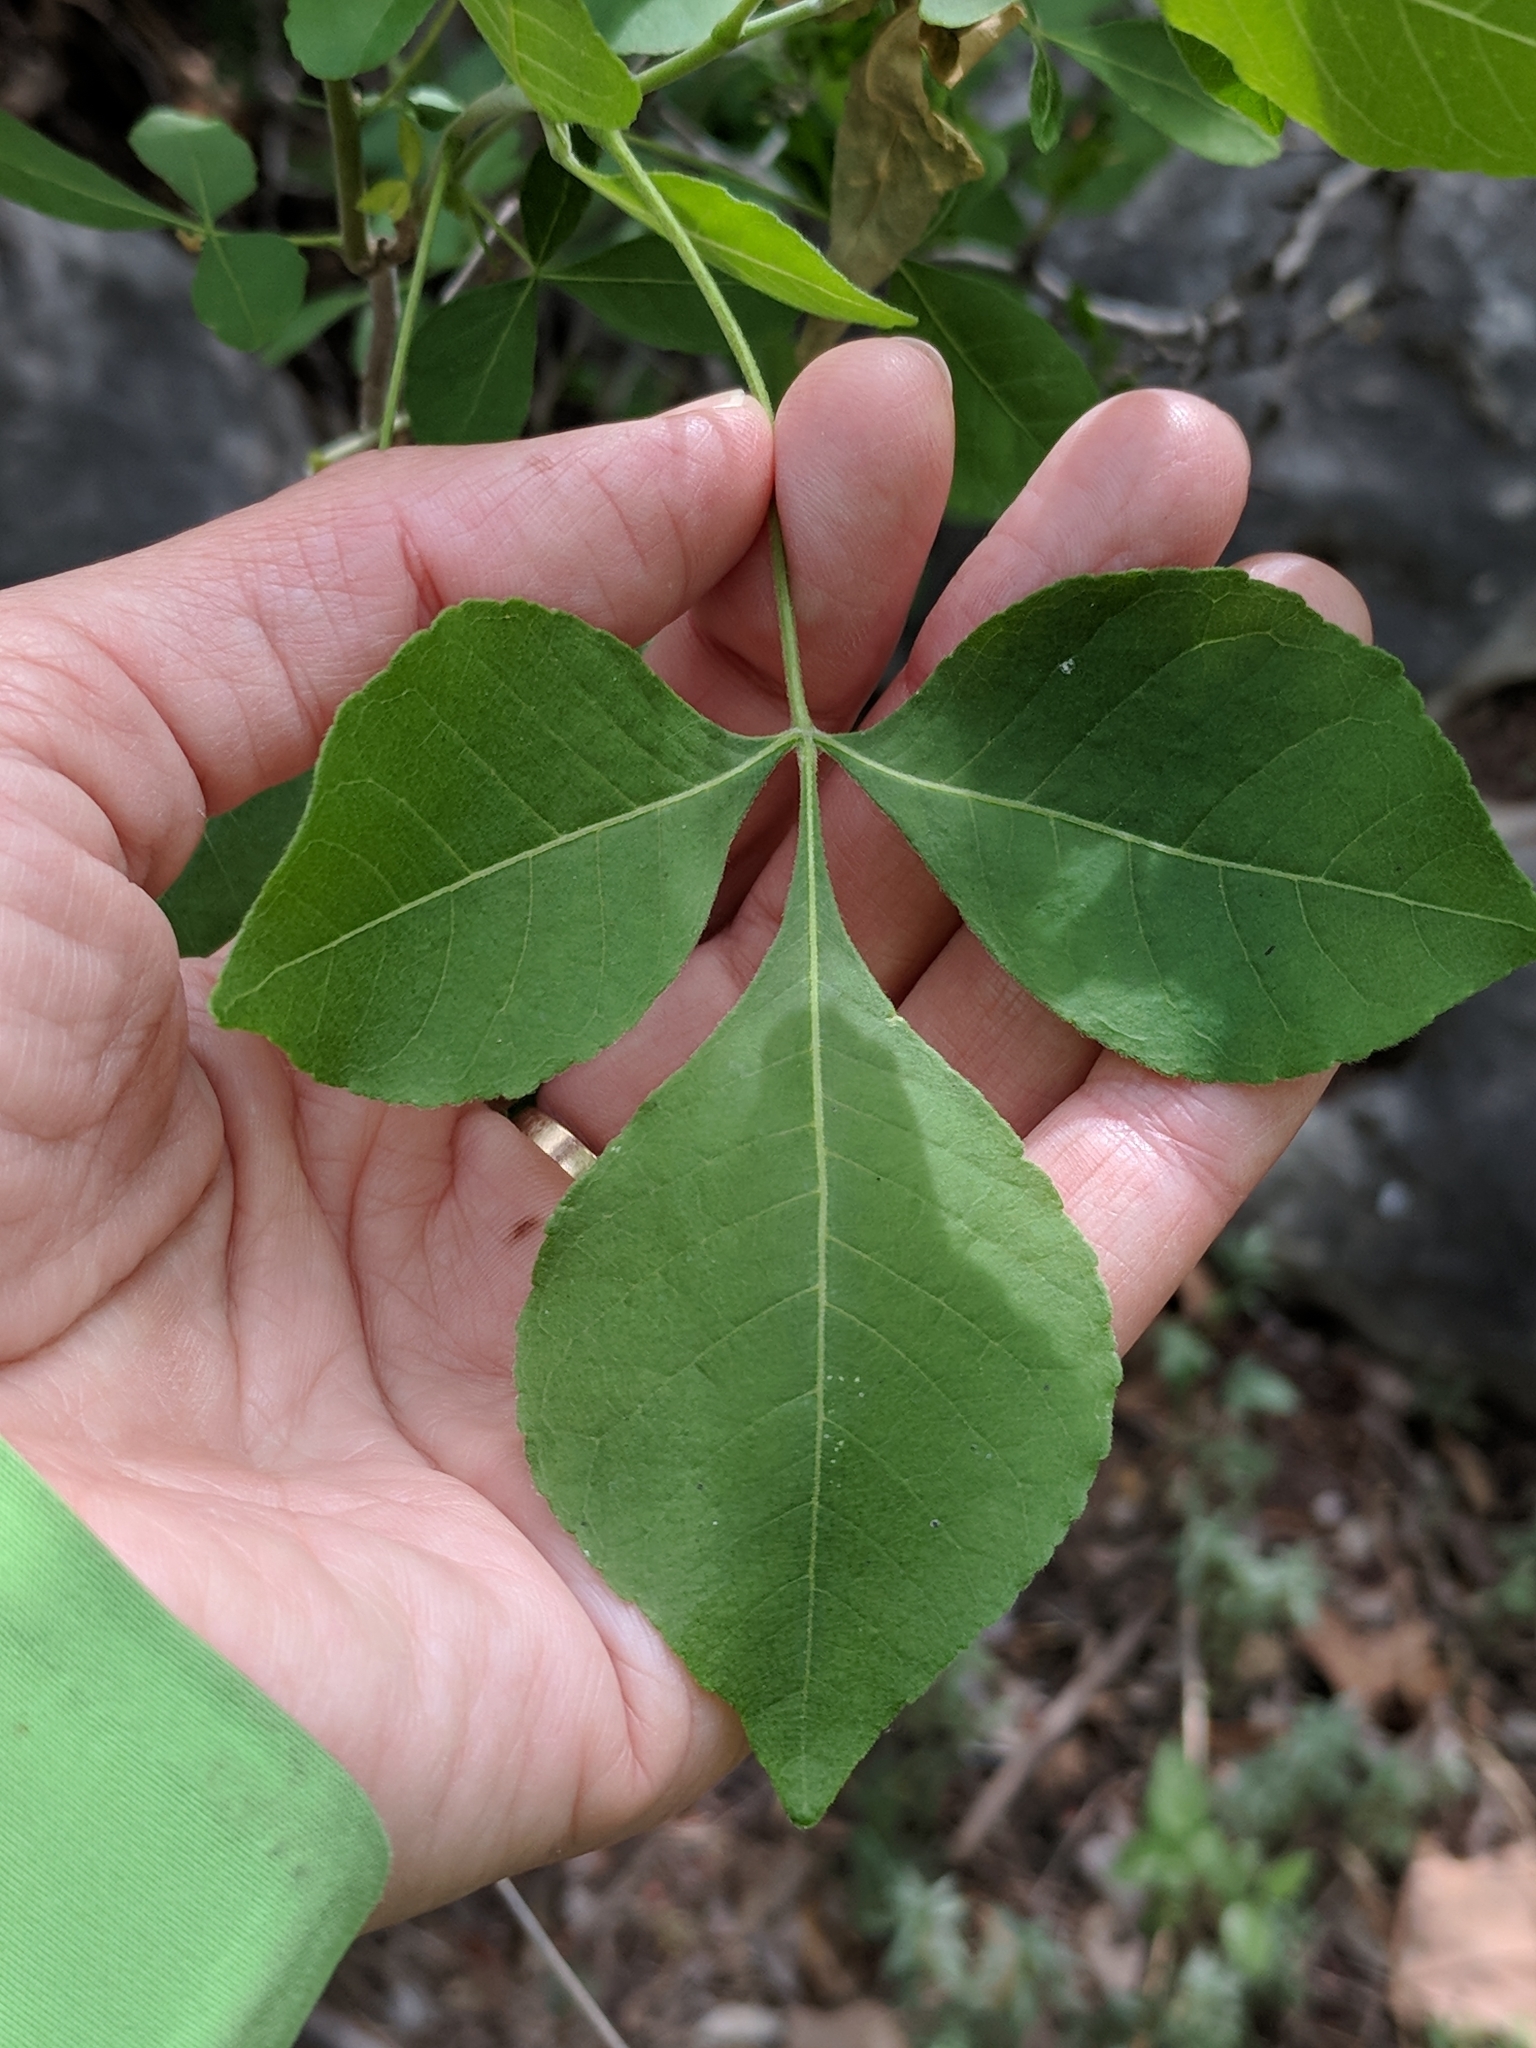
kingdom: Plantae
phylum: Tracheophyta
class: Magnoliopsida
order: Sapindales
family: Rutaceae
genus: Ptelea
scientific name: Ptelea trifoliata
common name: Common hop-tree
